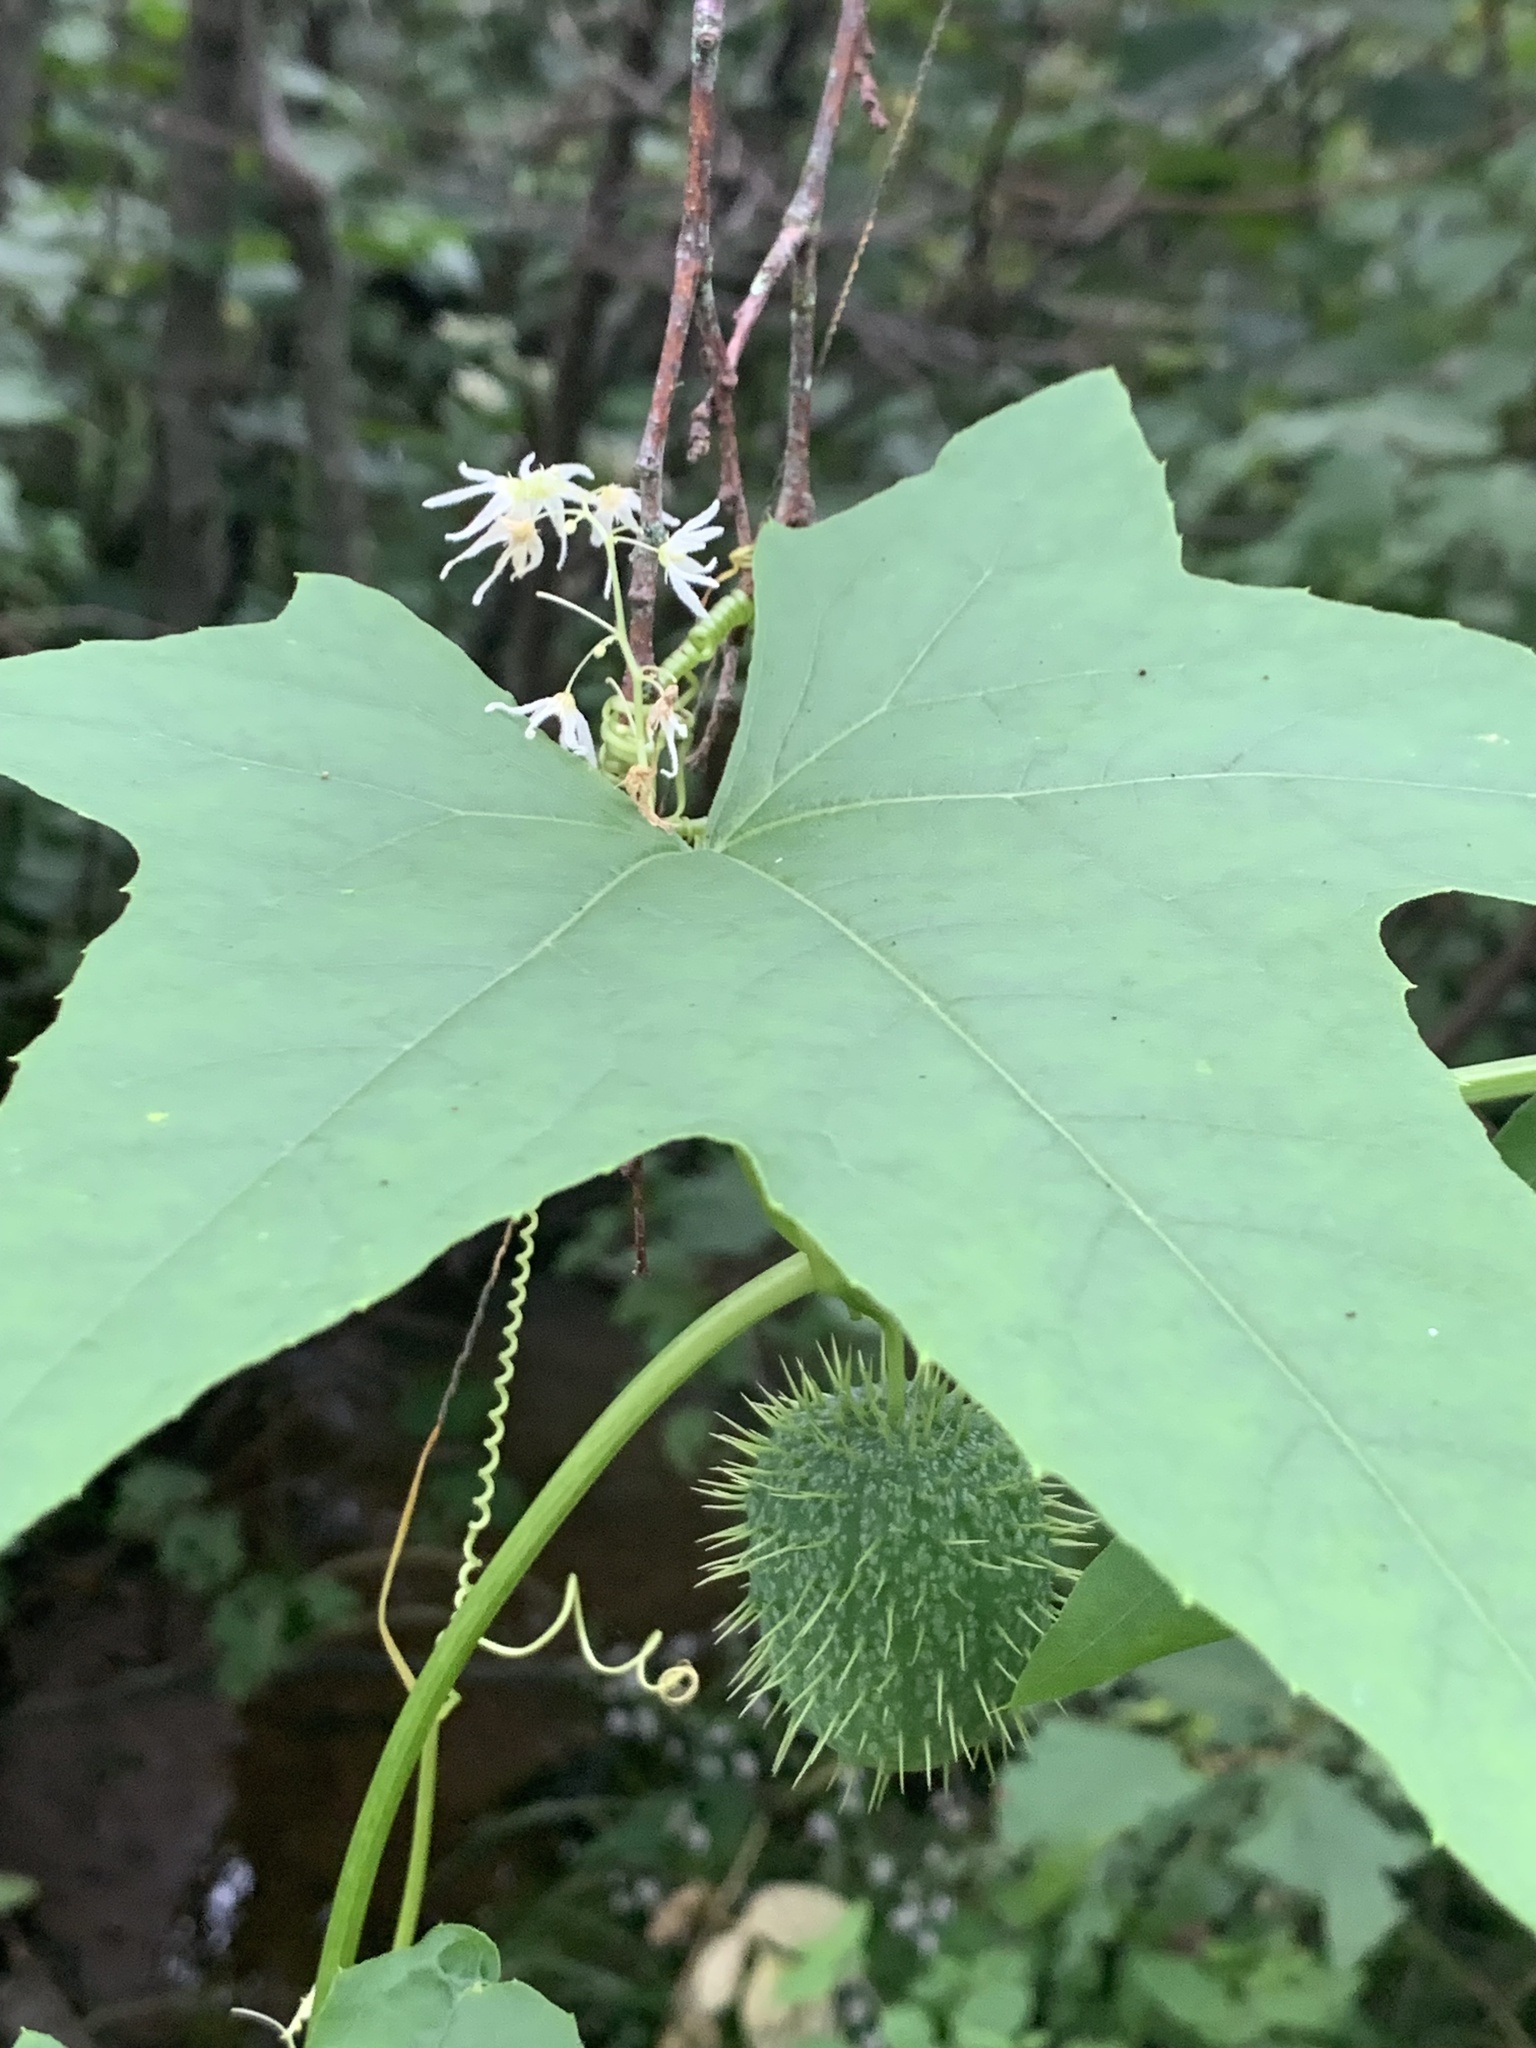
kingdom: Plantae
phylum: Tracheophyta
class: Magnoliopsida
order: Cucurbitales
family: Cucurbitaceae
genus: Echinocystis
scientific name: Echinocystis lobata
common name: Wild cucumber
